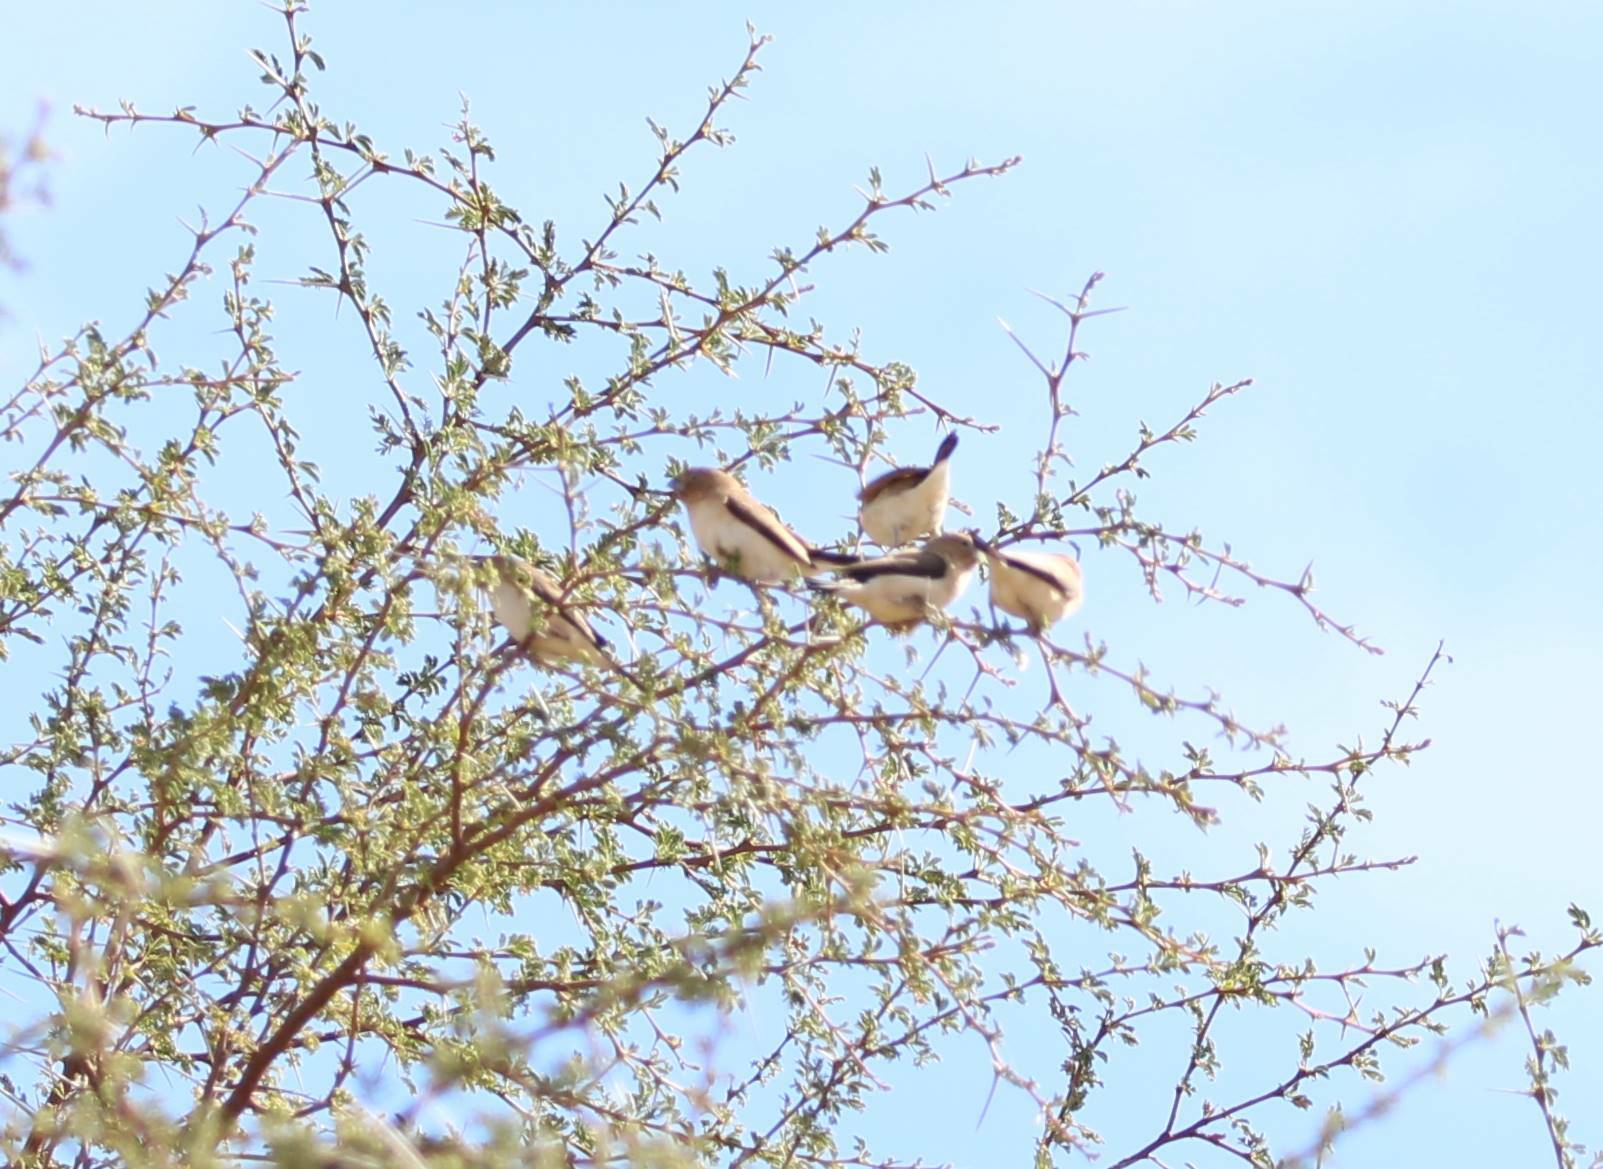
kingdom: Animalia
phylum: Chordata
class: Aves
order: Passeriformes
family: Estrildidae
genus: Euodice
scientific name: Euodice cantans
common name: African silverbill
